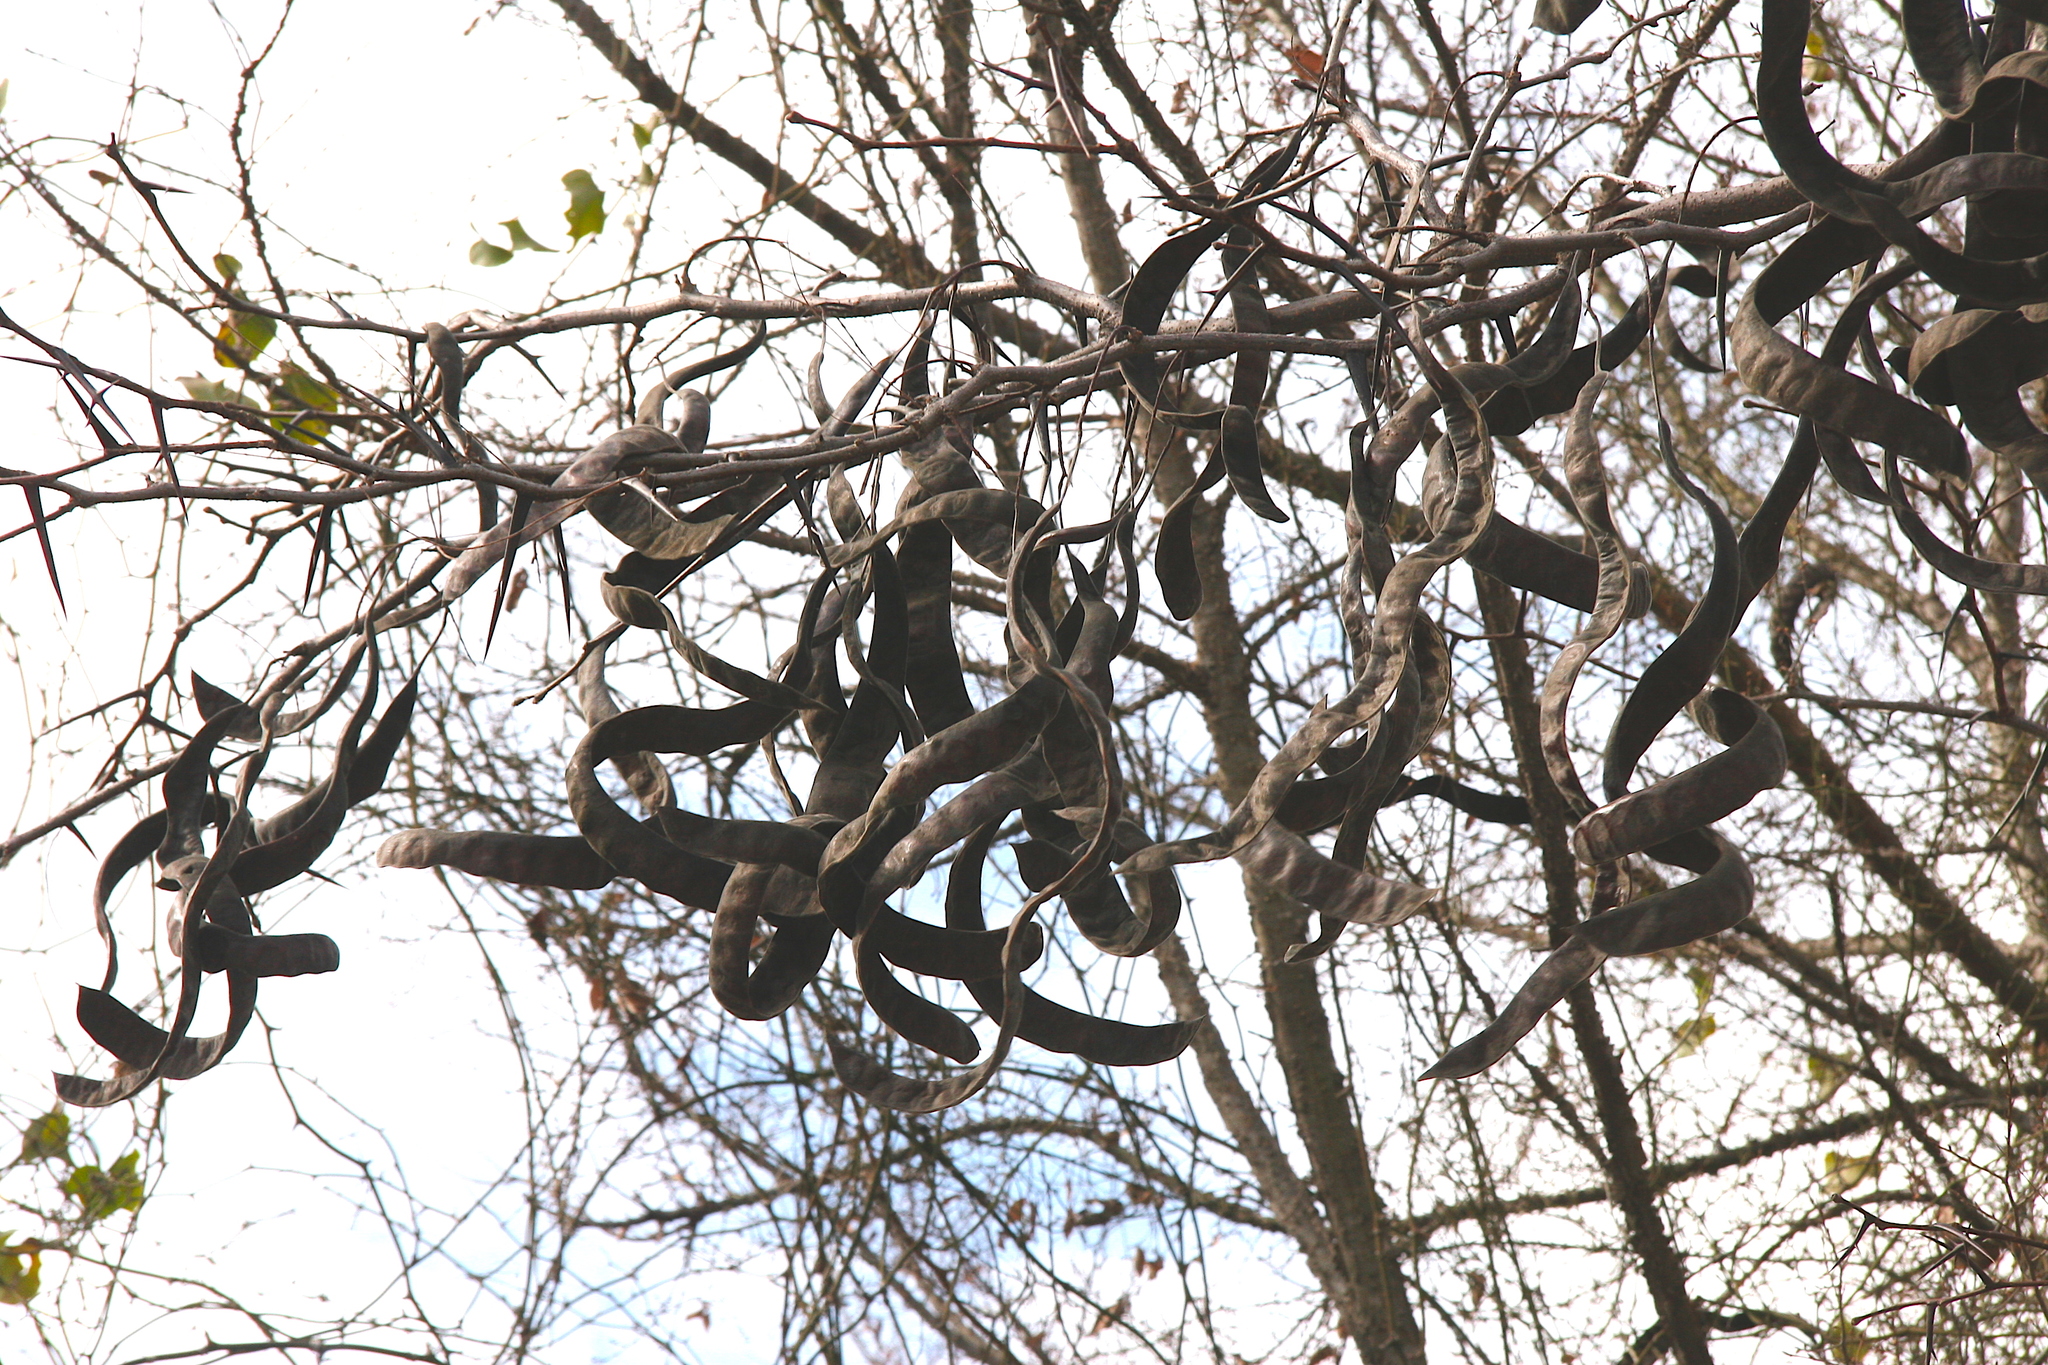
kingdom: Plantae
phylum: Tracheophyta
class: Magnoliopsida
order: Fabales
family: Fabaceae
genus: Gleditsia
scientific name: Gleditsia triacanthos
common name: Common honeylocust
